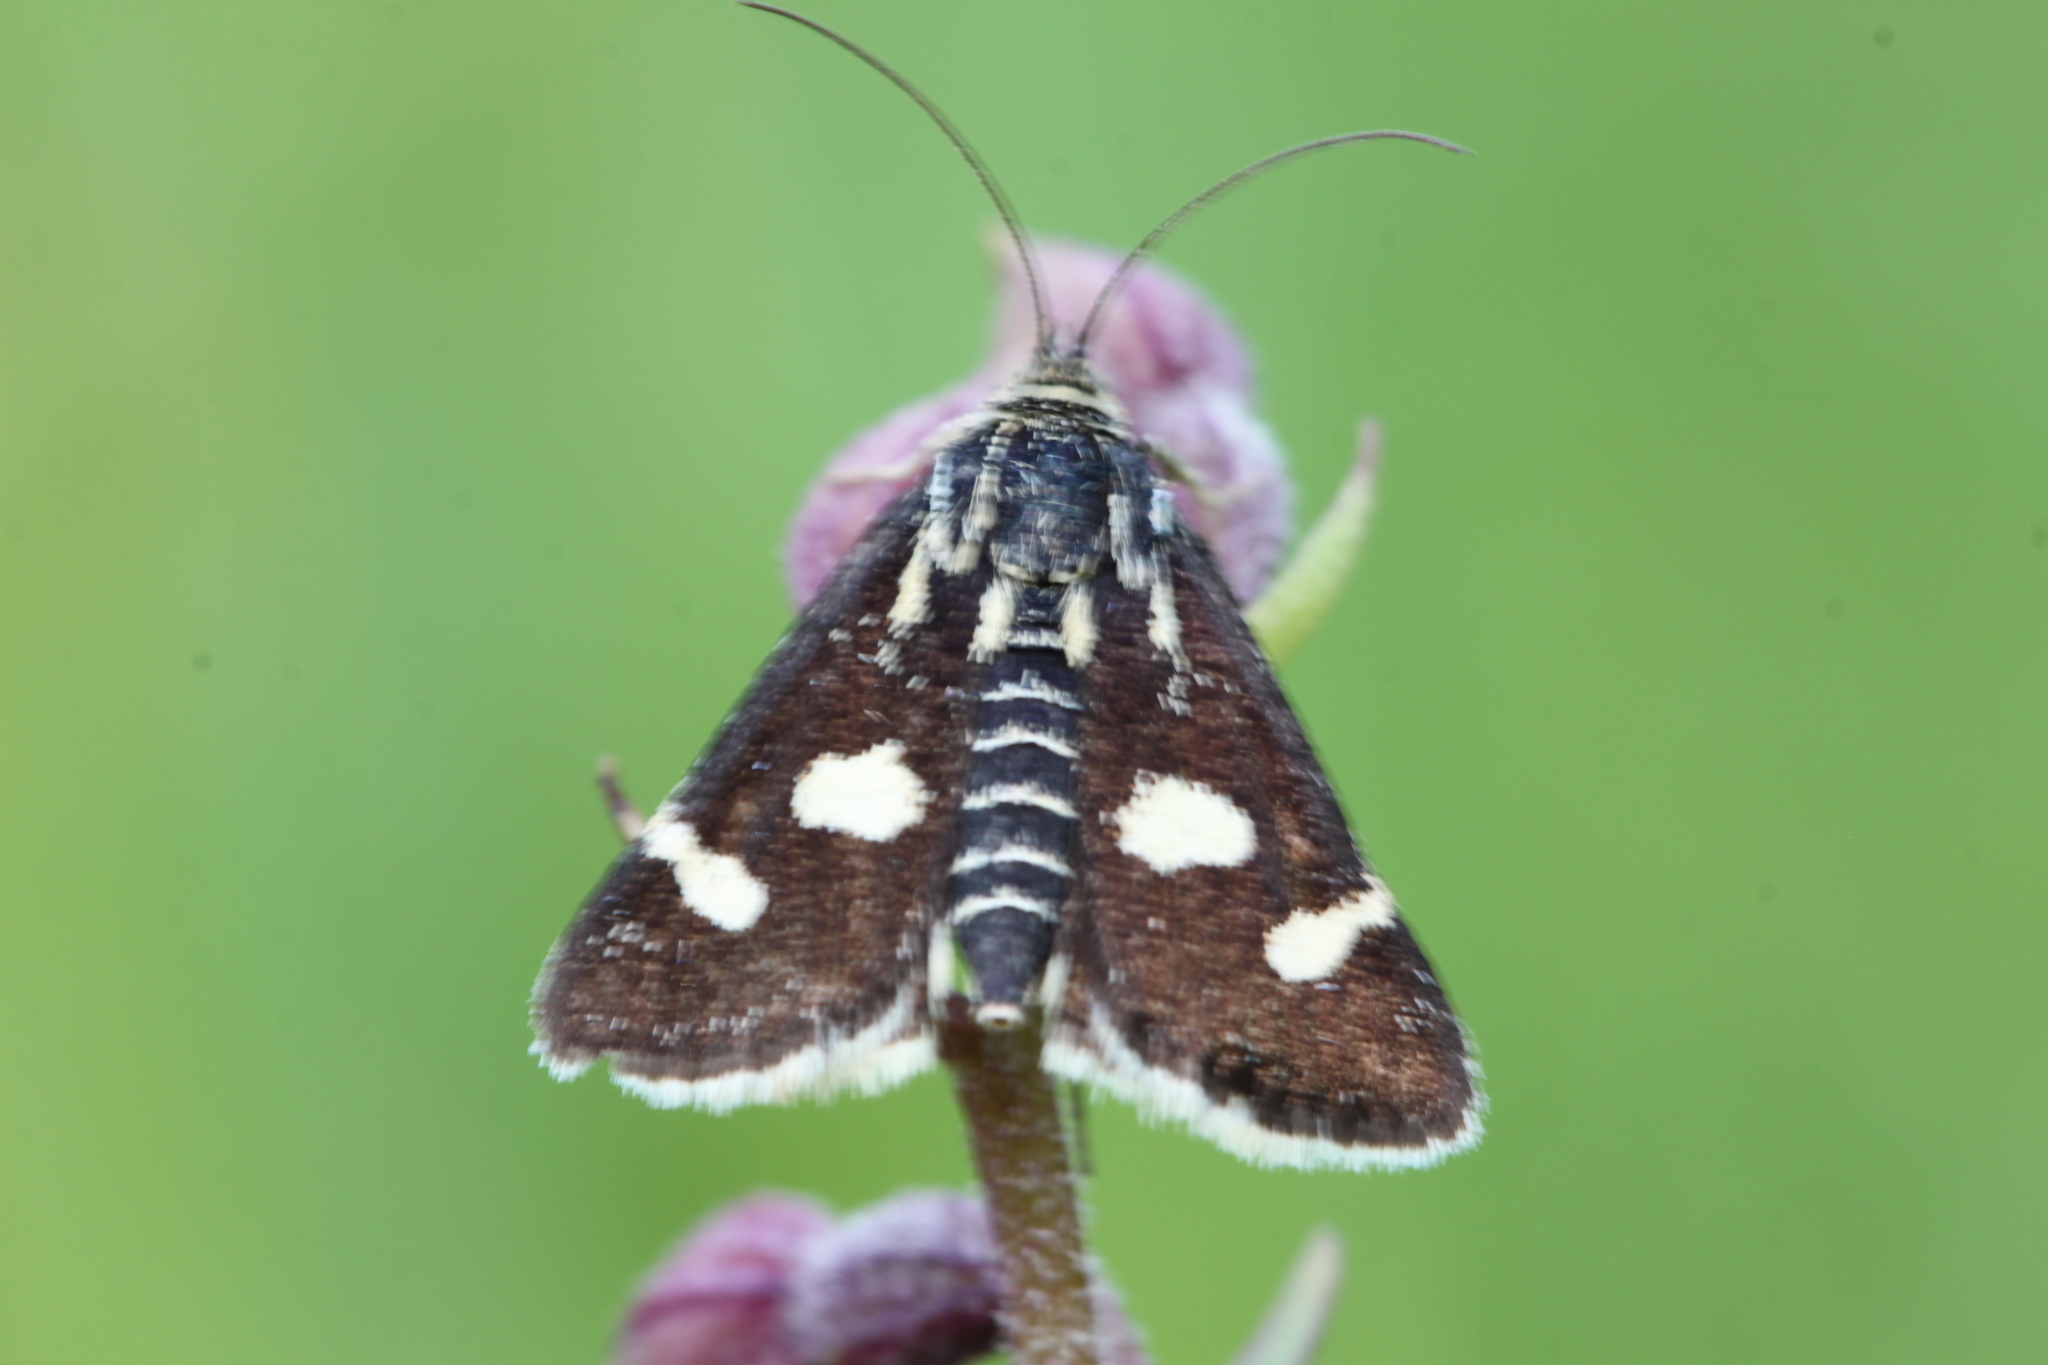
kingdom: Animalia
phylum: Arthropoda
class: Insecta
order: Lepidoptera
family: Crambidae
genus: Eurrhypis
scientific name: Eurrhypis pollinalis
